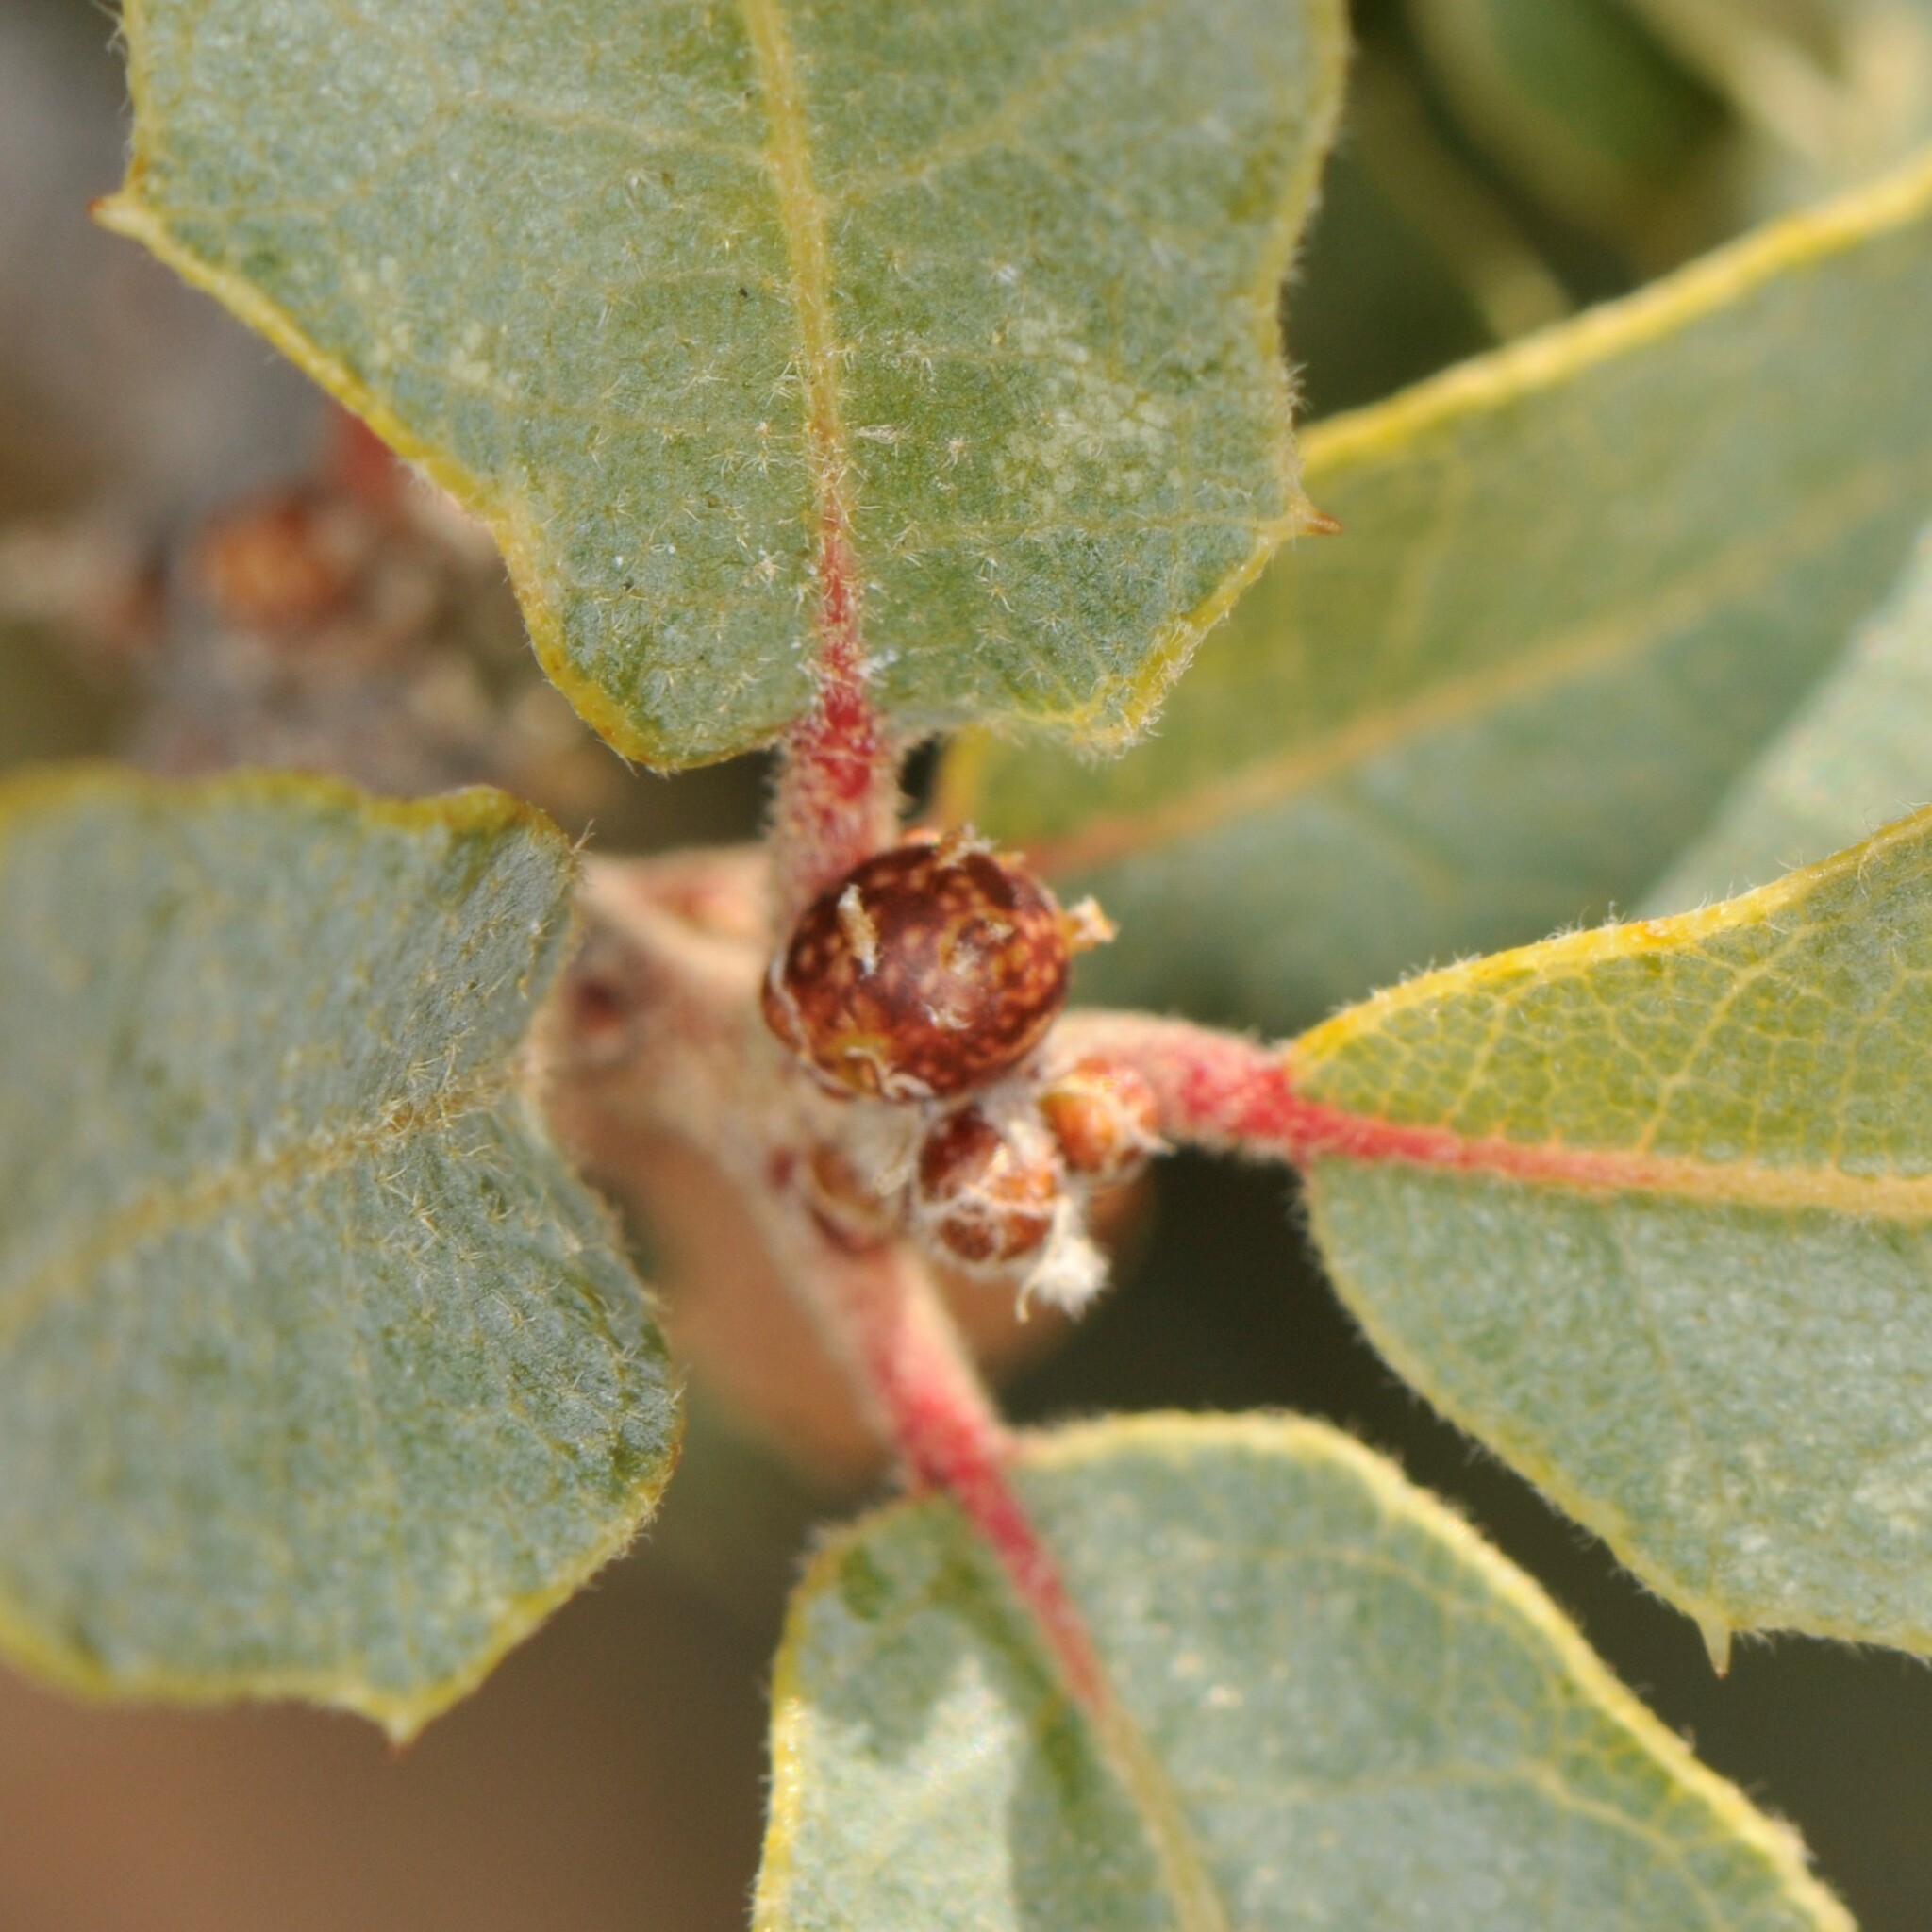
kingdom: Animalia
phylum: Arthropoda
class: Insecta
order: Hymenoptera
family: Cynipidae
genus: Neuroterus
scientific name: Neuroterus alexandrae
